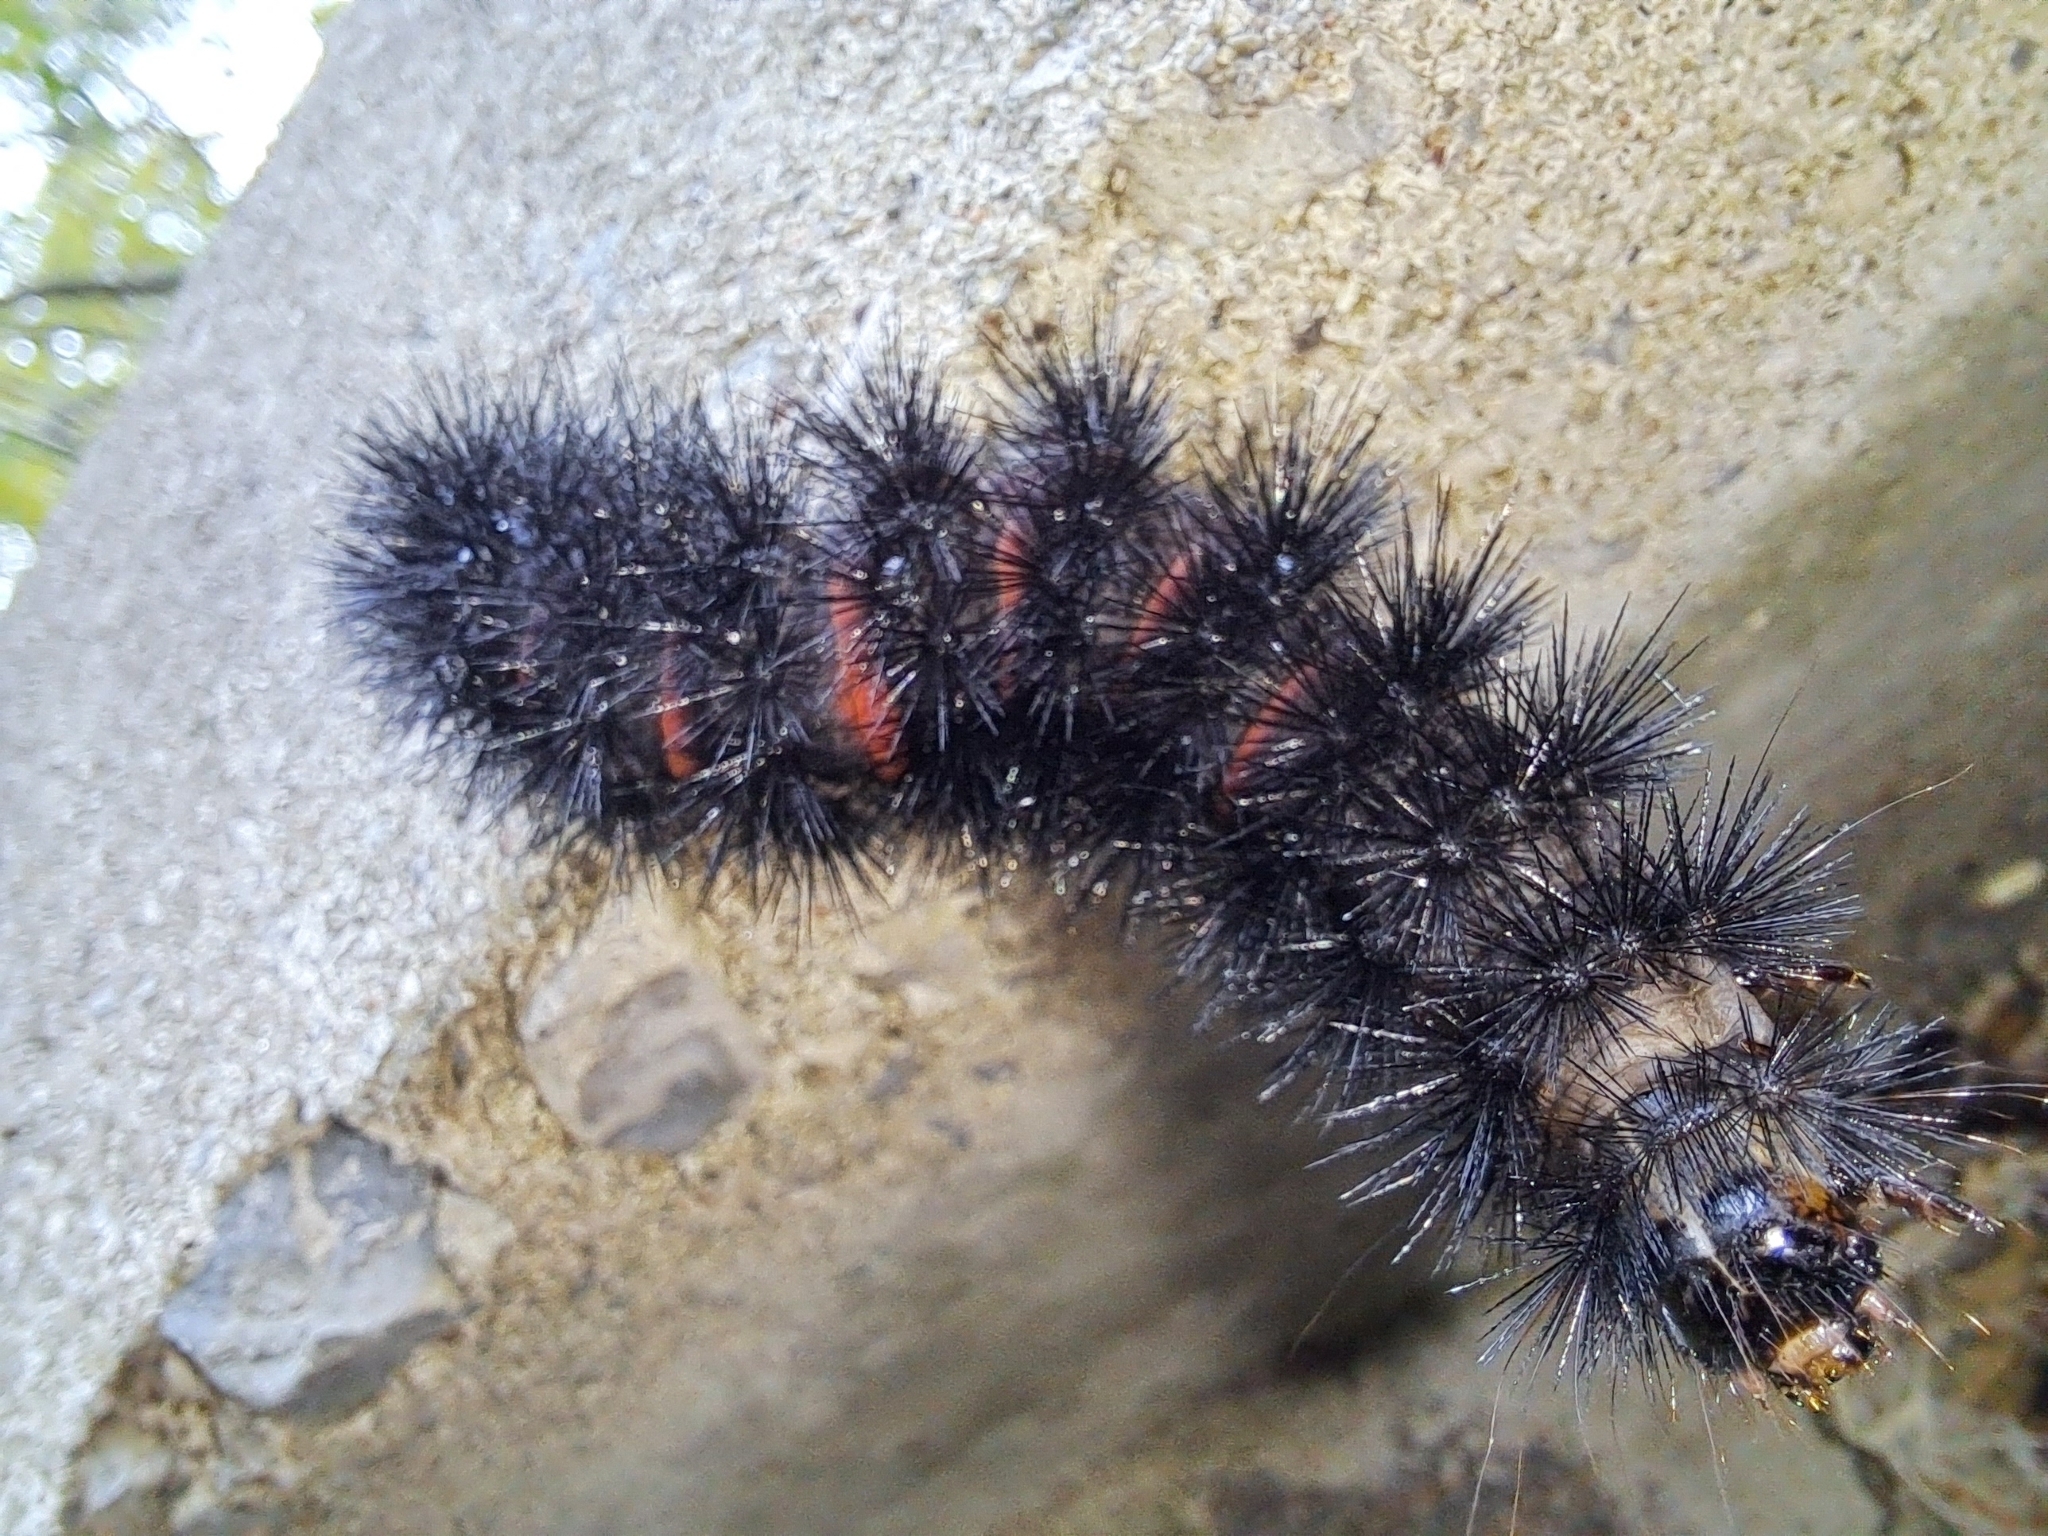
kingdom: Animalia
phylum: Arthropoda
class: Insecta
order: Lepidoptera
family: Erebidae
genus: Hypercompe
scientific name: Hypercompe scribonia
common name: Giant leopard moth
